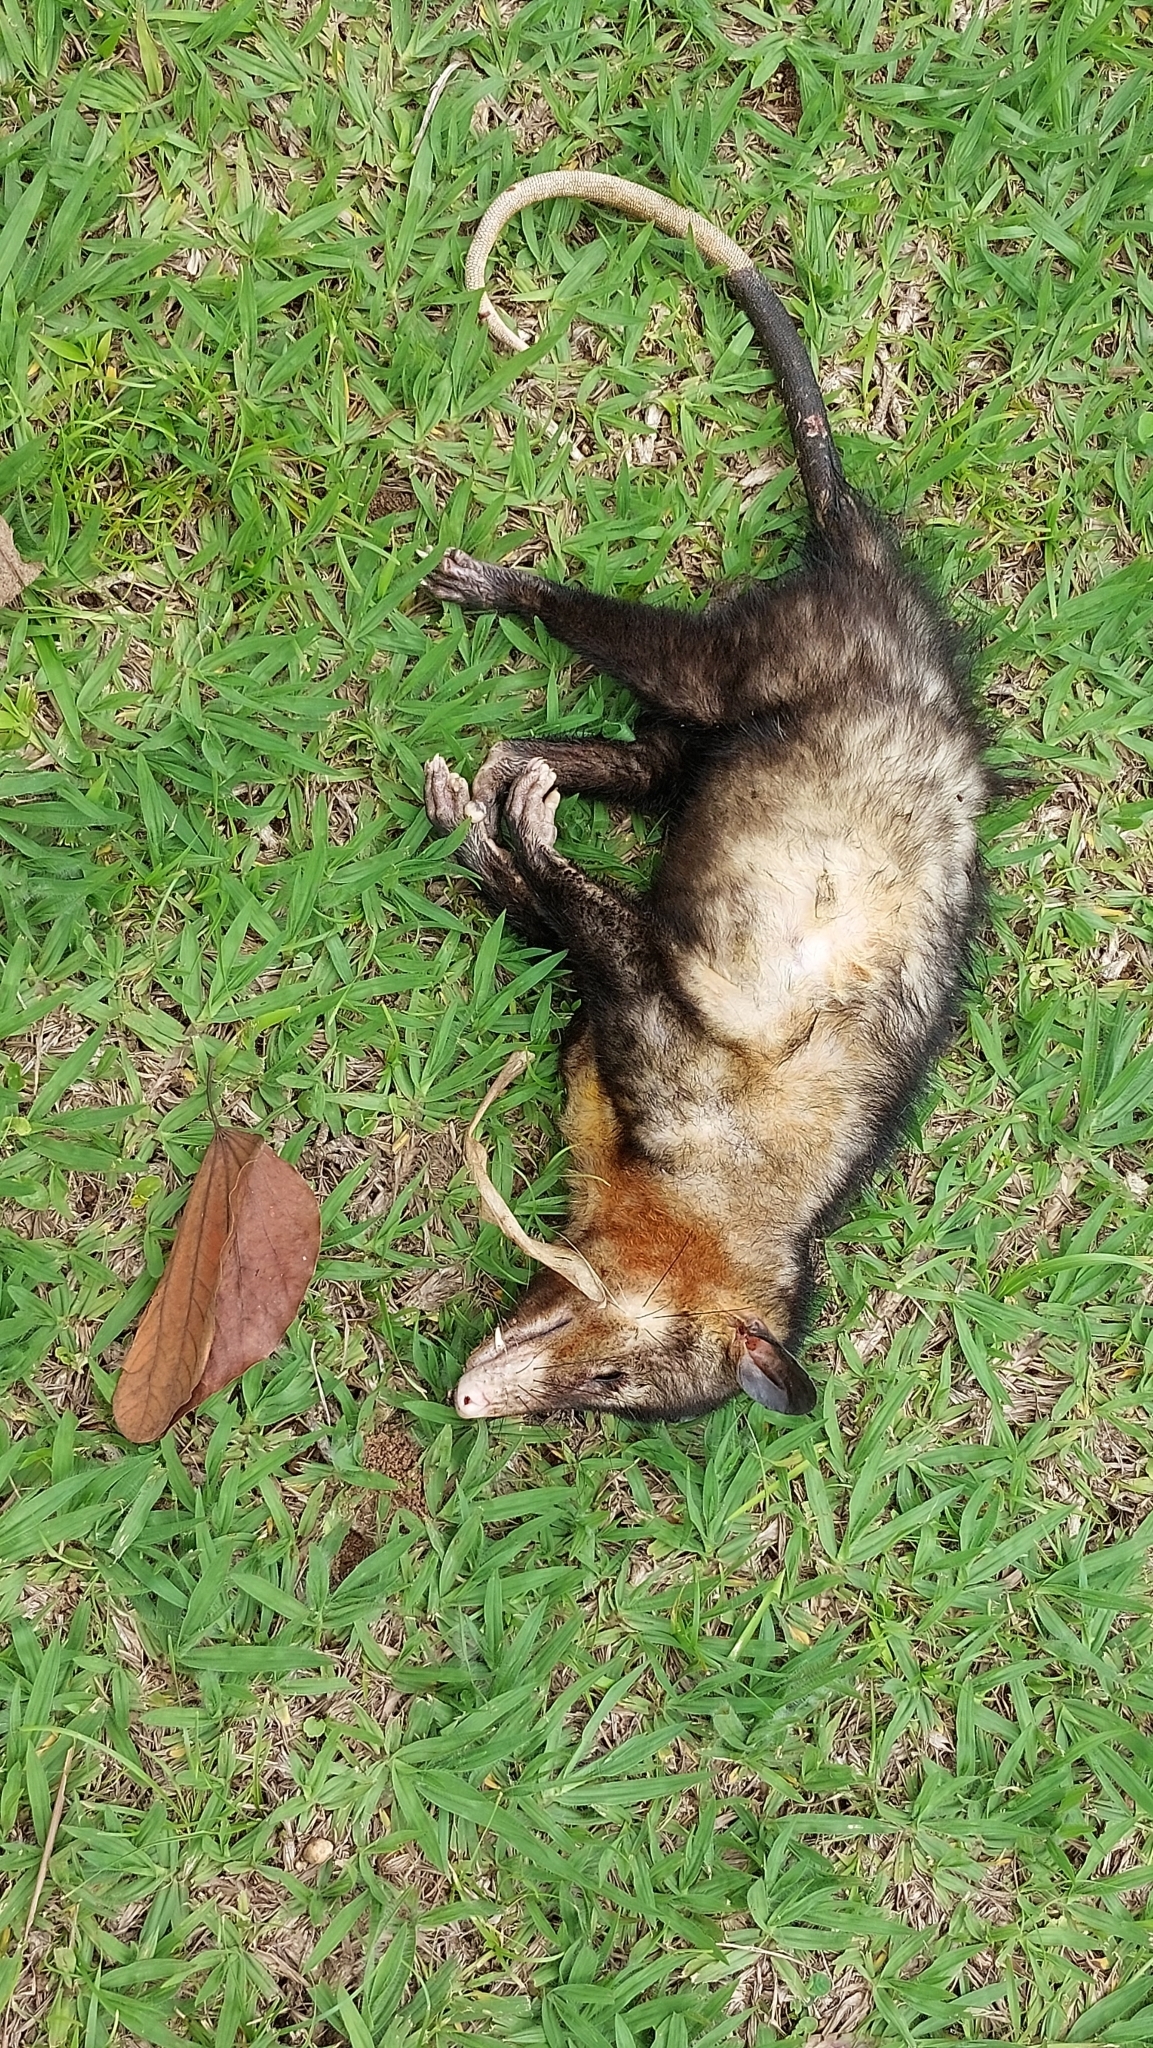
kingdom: Animalia
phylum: Chordata
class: Mammalia
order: Didelphimorphia
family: Didelphidae
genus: Didelphis
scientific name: Didelphis aurita
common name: Big-eared opossum
